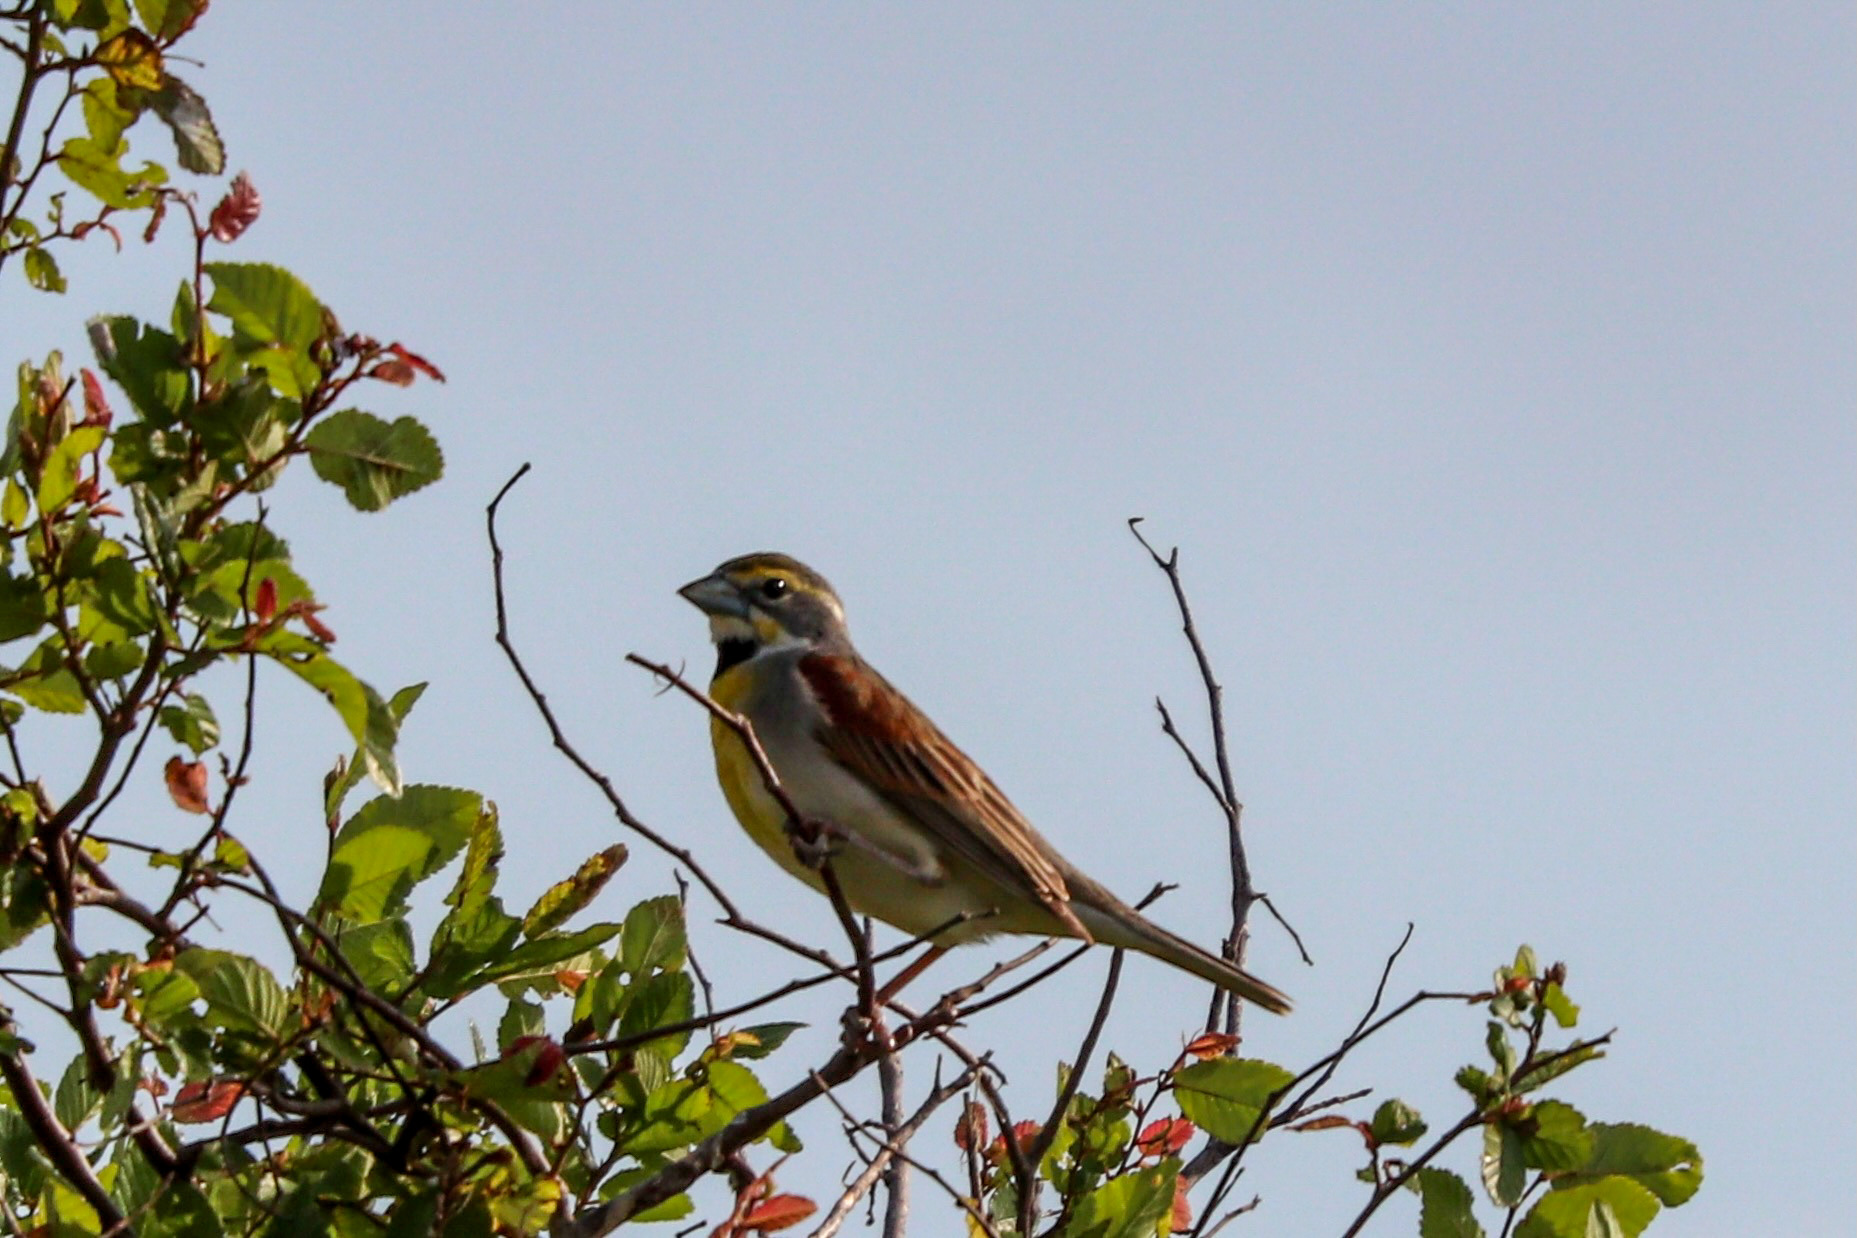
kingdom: Animalia
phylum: Chordata
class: Aves
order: Passeriformes
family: Cardinalidae
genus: Spiza
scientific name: Spiza americana
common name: Dickcissel
